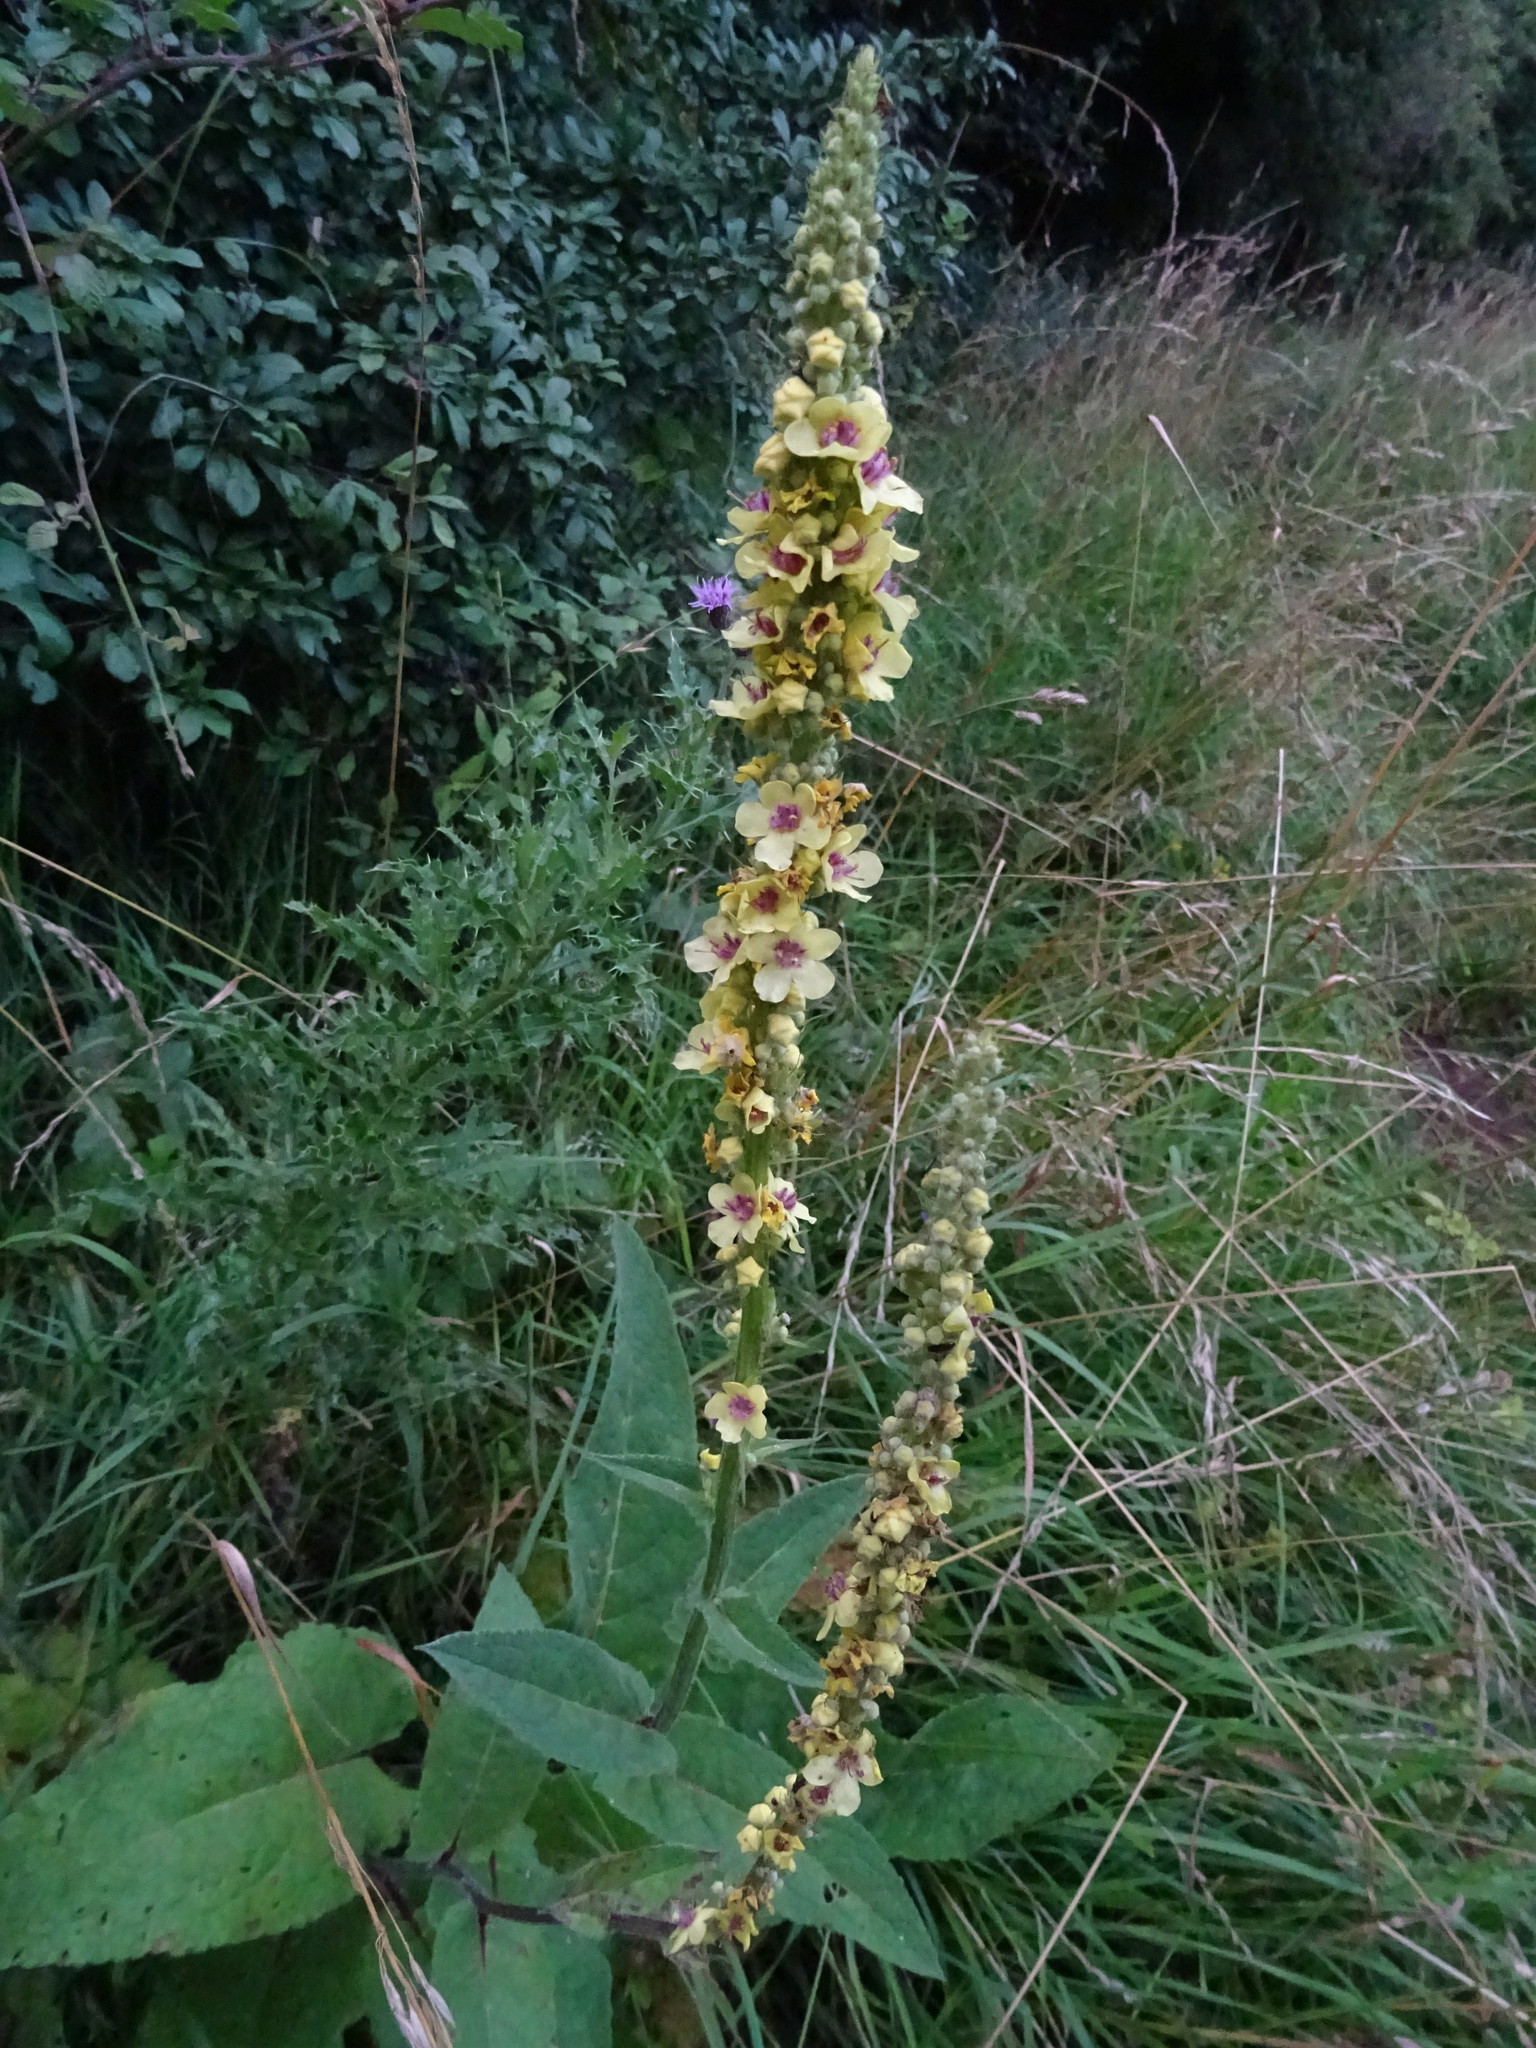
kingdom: Plantae
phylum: Tracheophyta
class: Magnoliopsida
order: Lamiales
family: Scrophulariaceae
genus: Verbascum
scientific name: Verbascum nigrum
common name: Dark mullein
